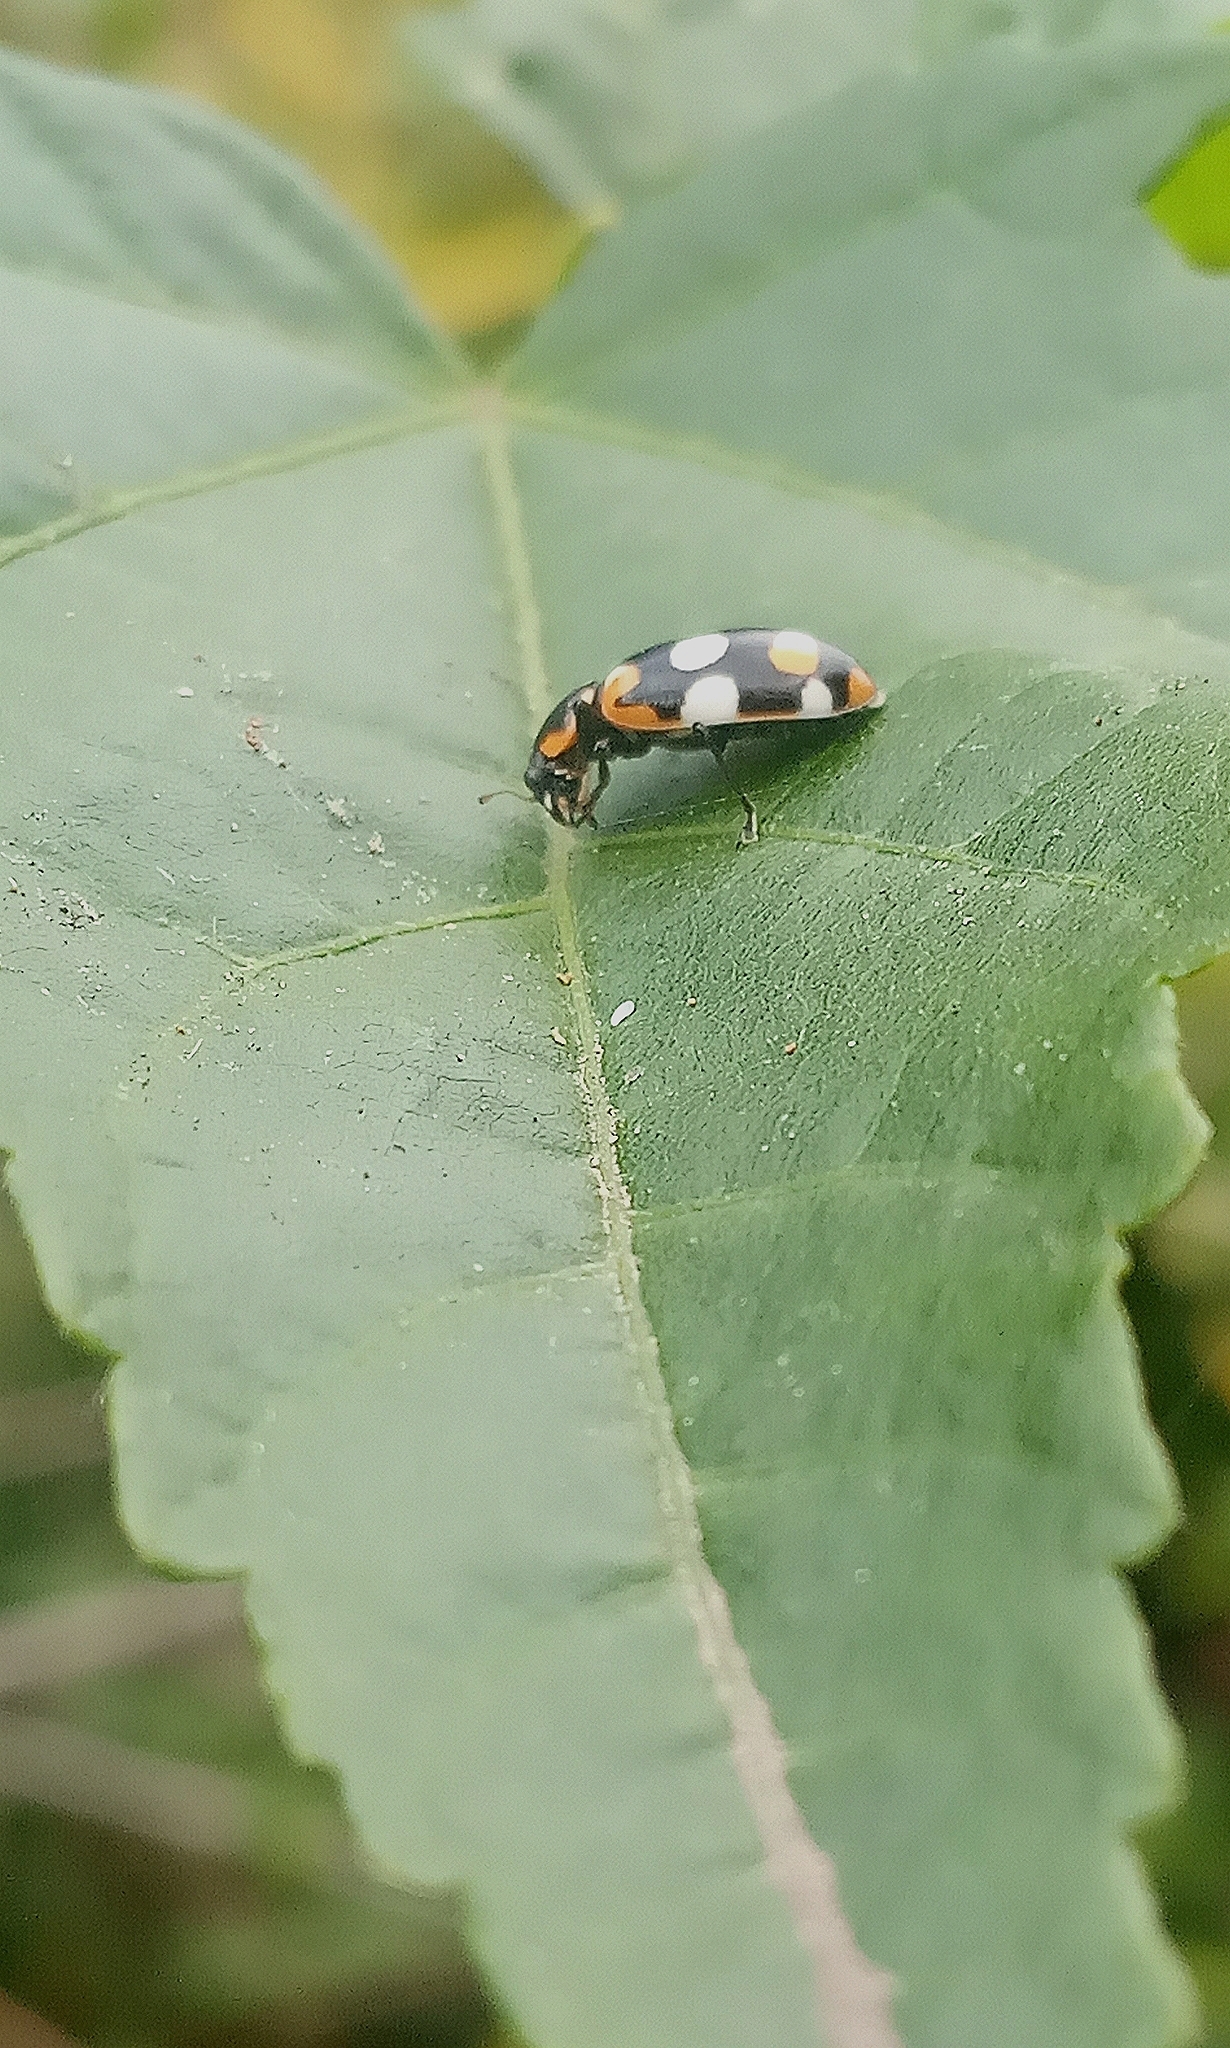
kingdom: Animalia
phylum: Arthropoda
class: Insecta
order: Coleoptera
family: Coccinellidae
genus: Eriopis
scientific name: Eriopis connexa
